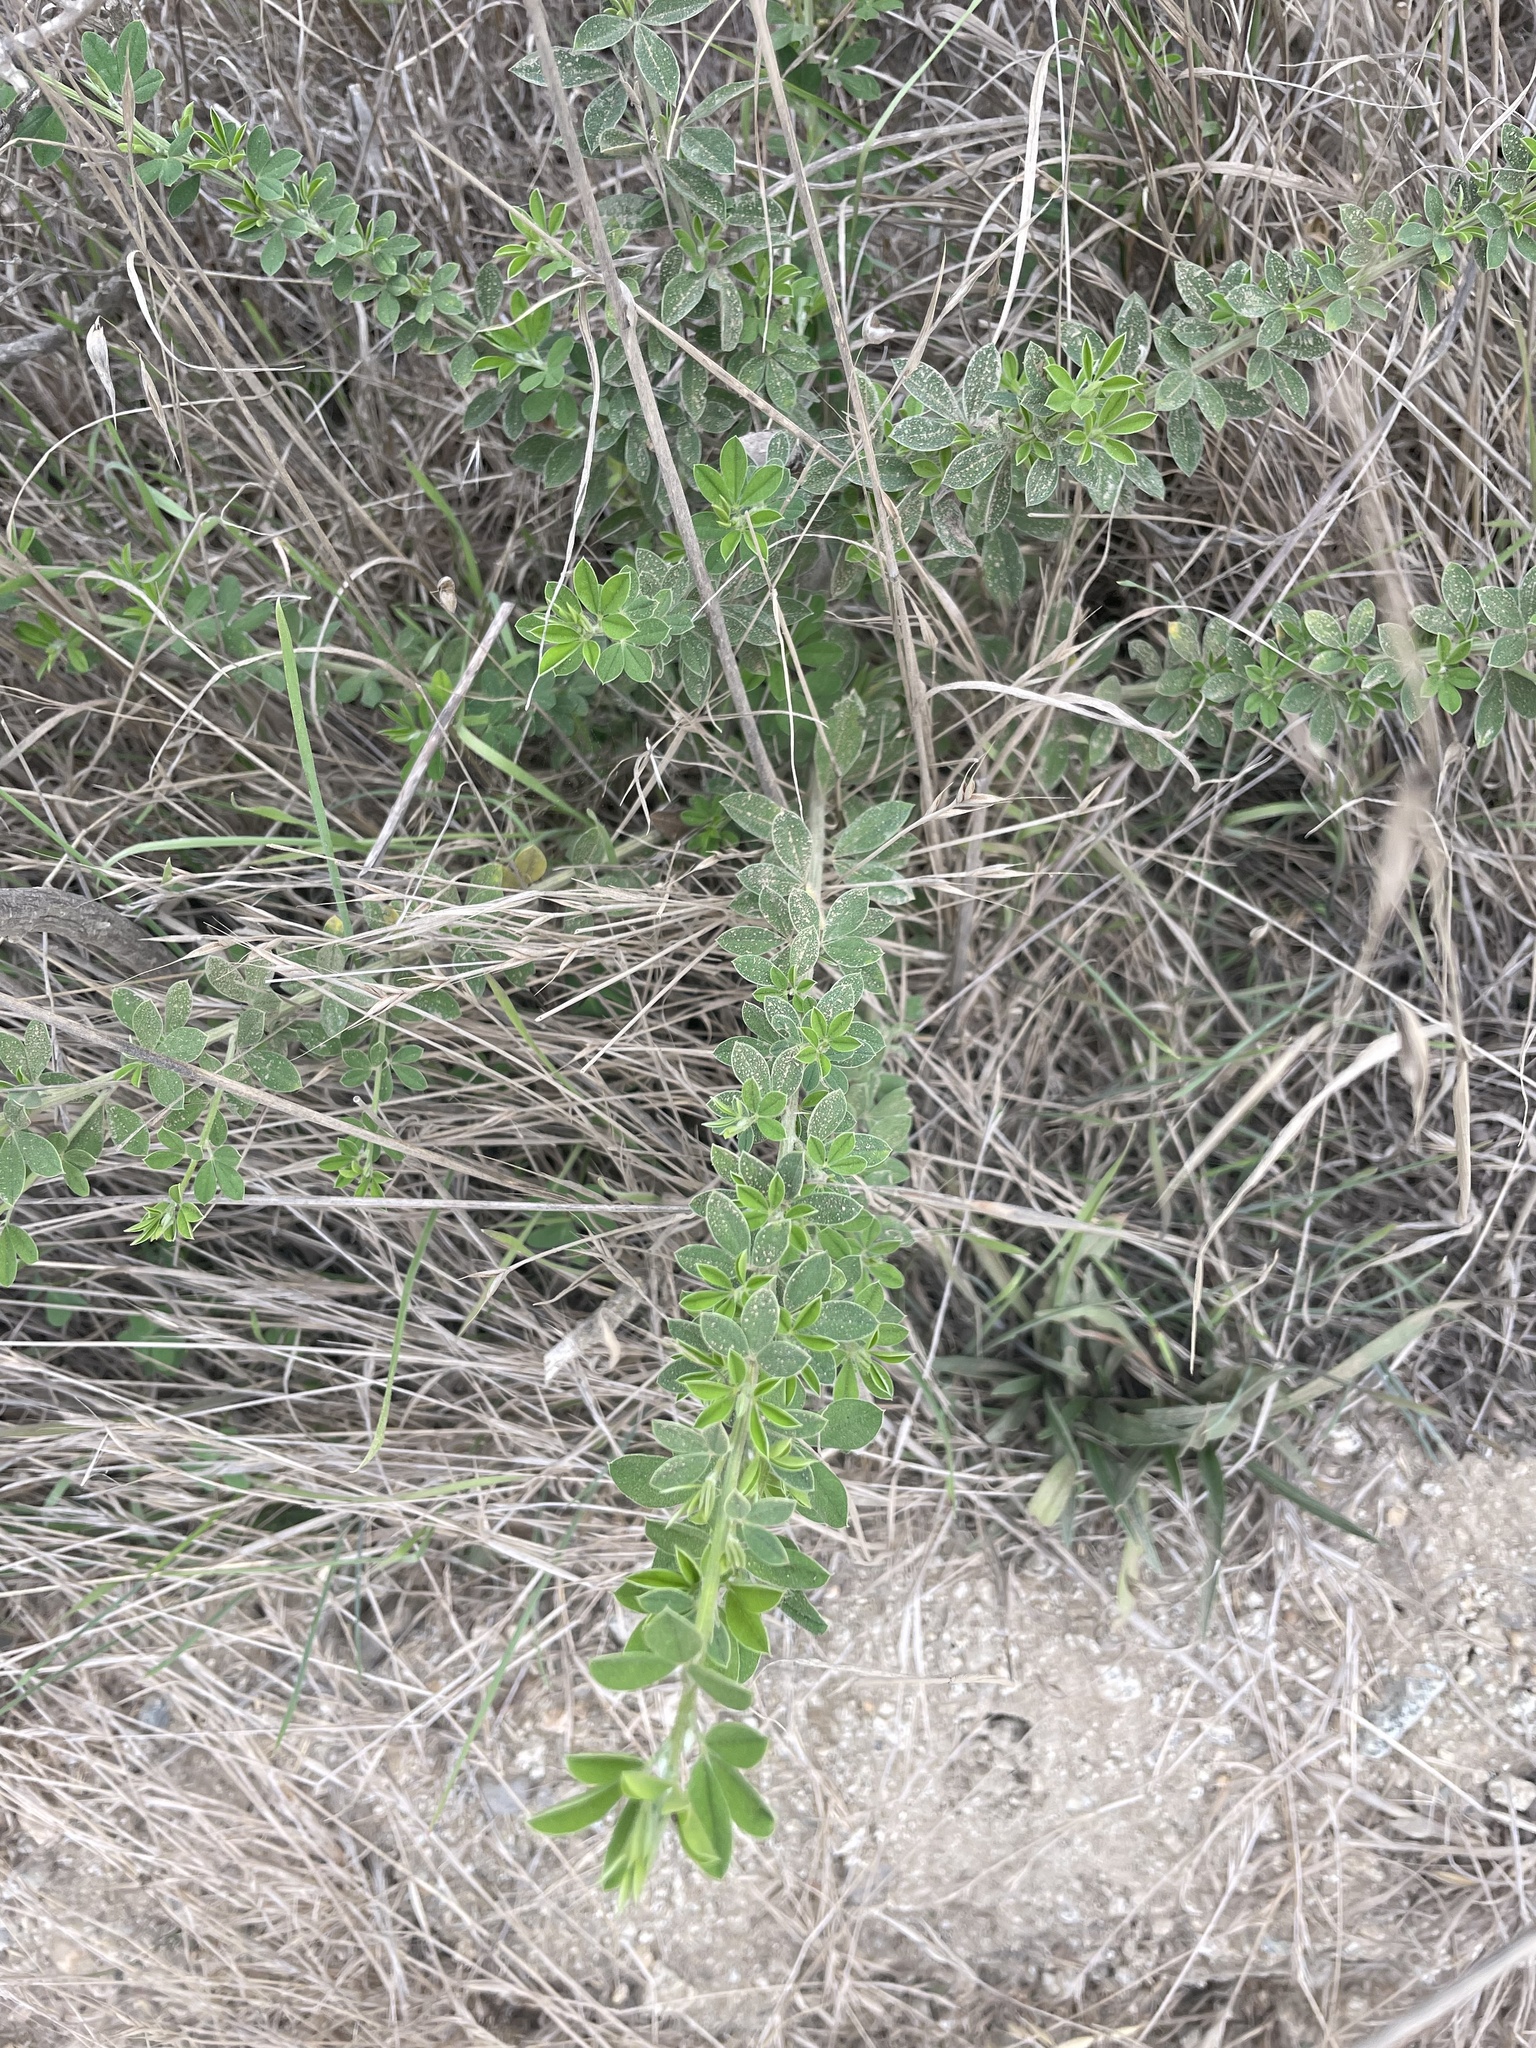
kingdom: Plantae
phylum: Tracheophyta
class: Magnoliopsida
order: Fabales
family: Fabaceae
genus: Genista
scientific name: Genista monspessulana
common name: Montpellier broom
